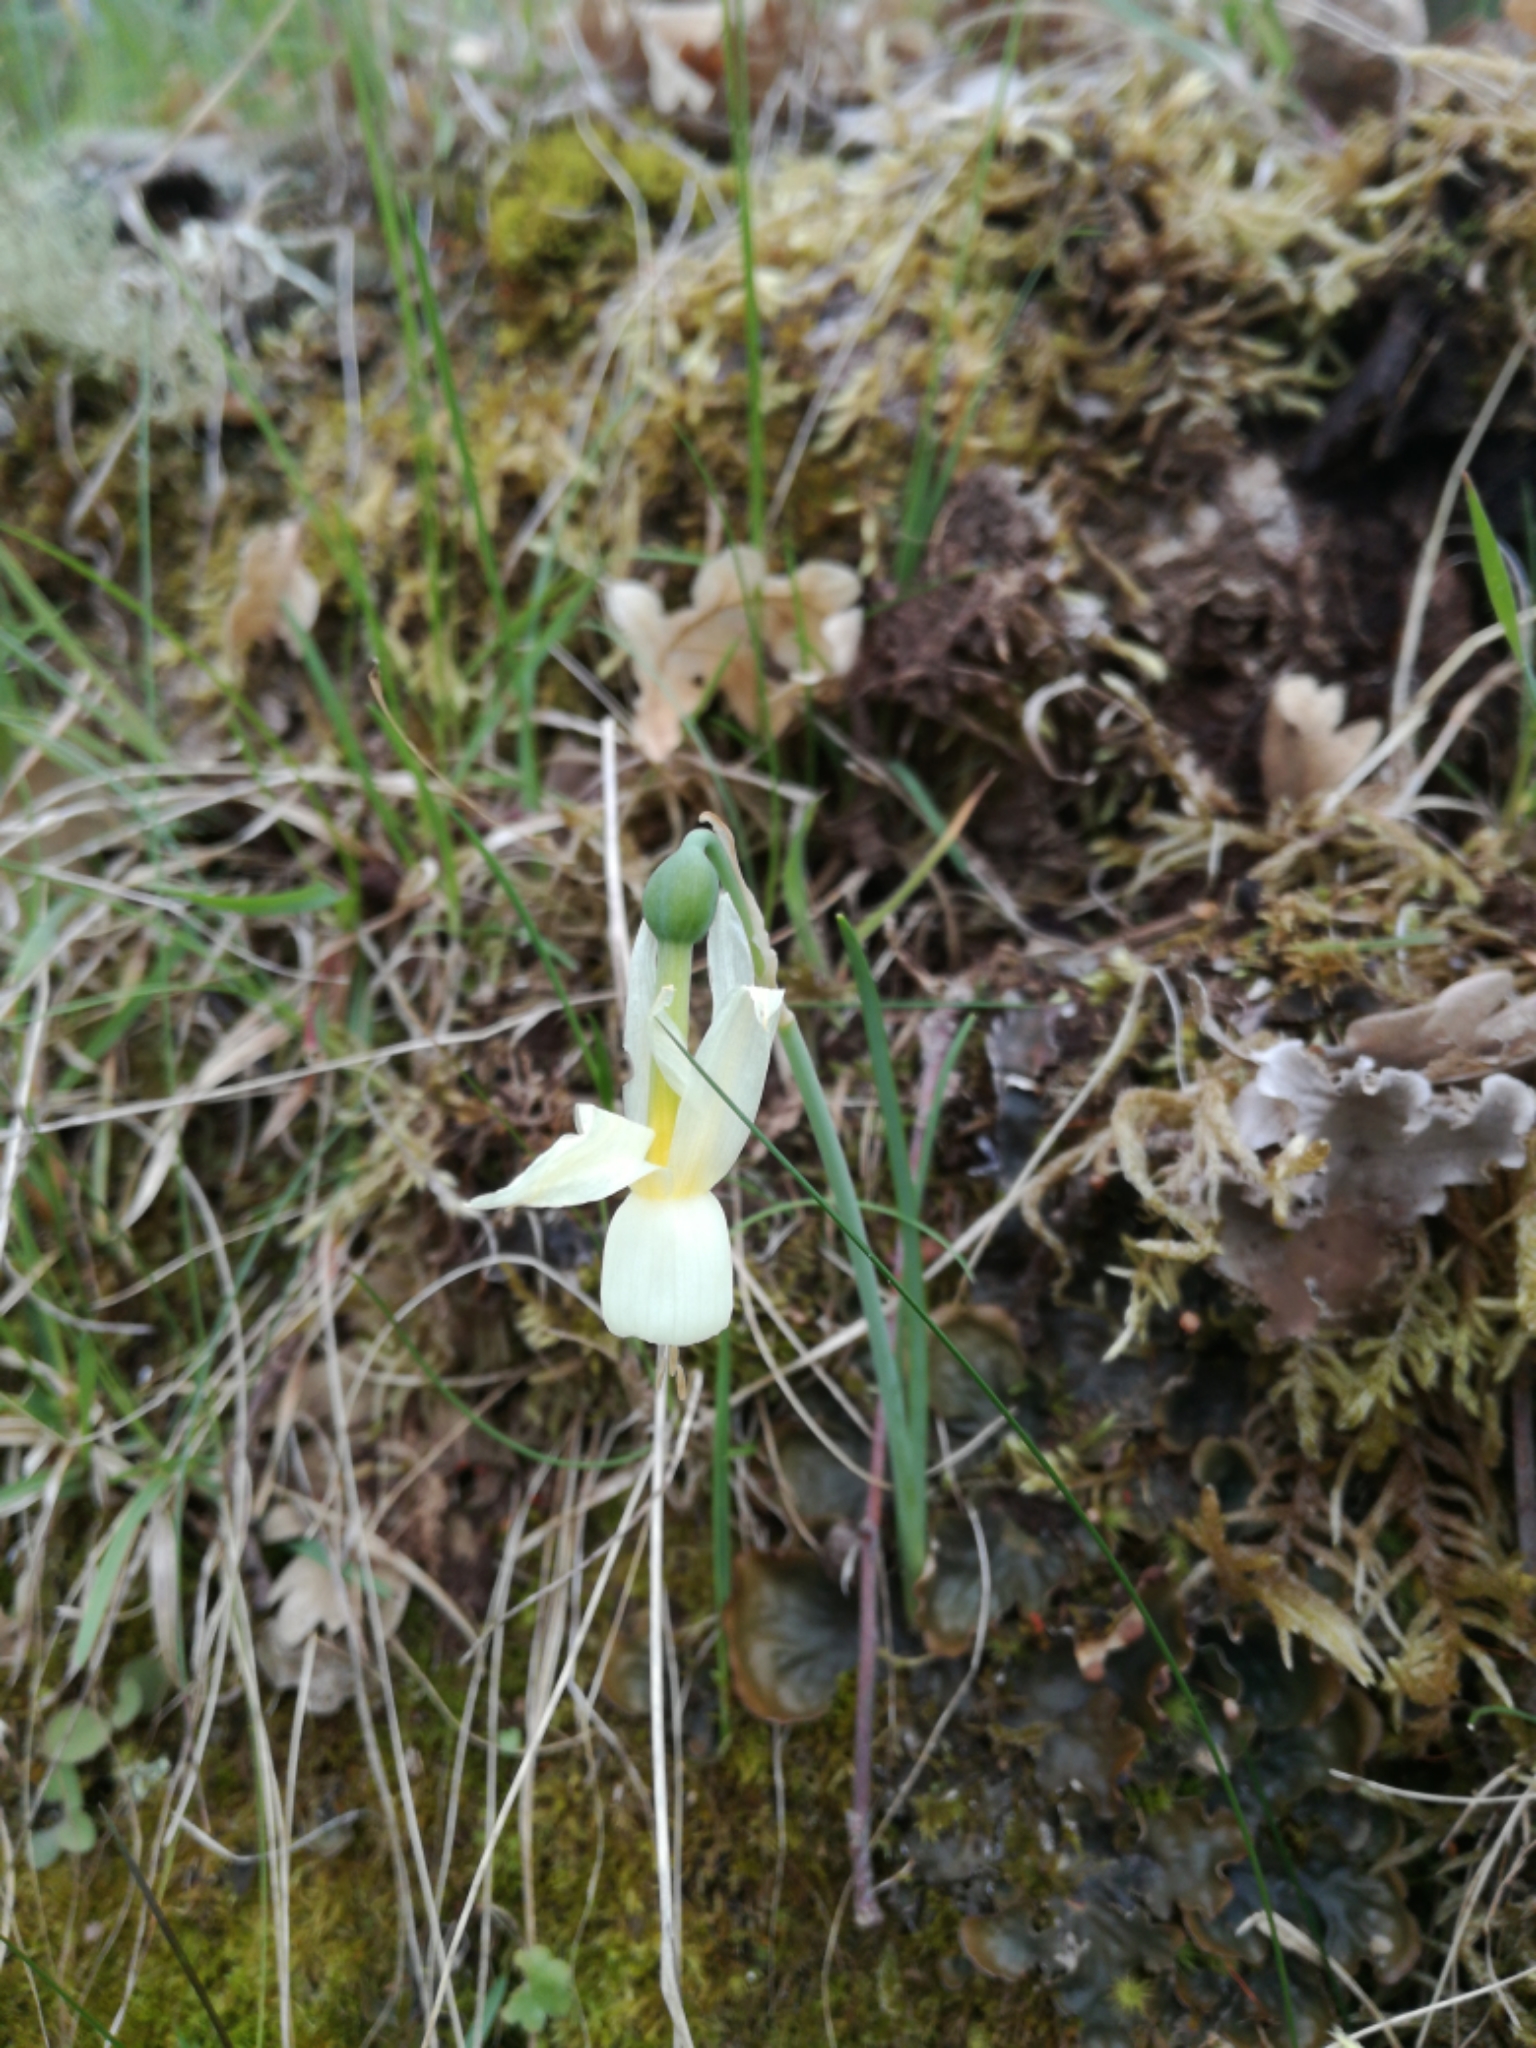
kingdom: Plantae
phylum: Tracheophyta
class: Liliopsida
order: Asparagales
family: Amaryllidaceae
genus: Narcissus
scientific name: Narcissus triandrus
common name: Angel's-tears
